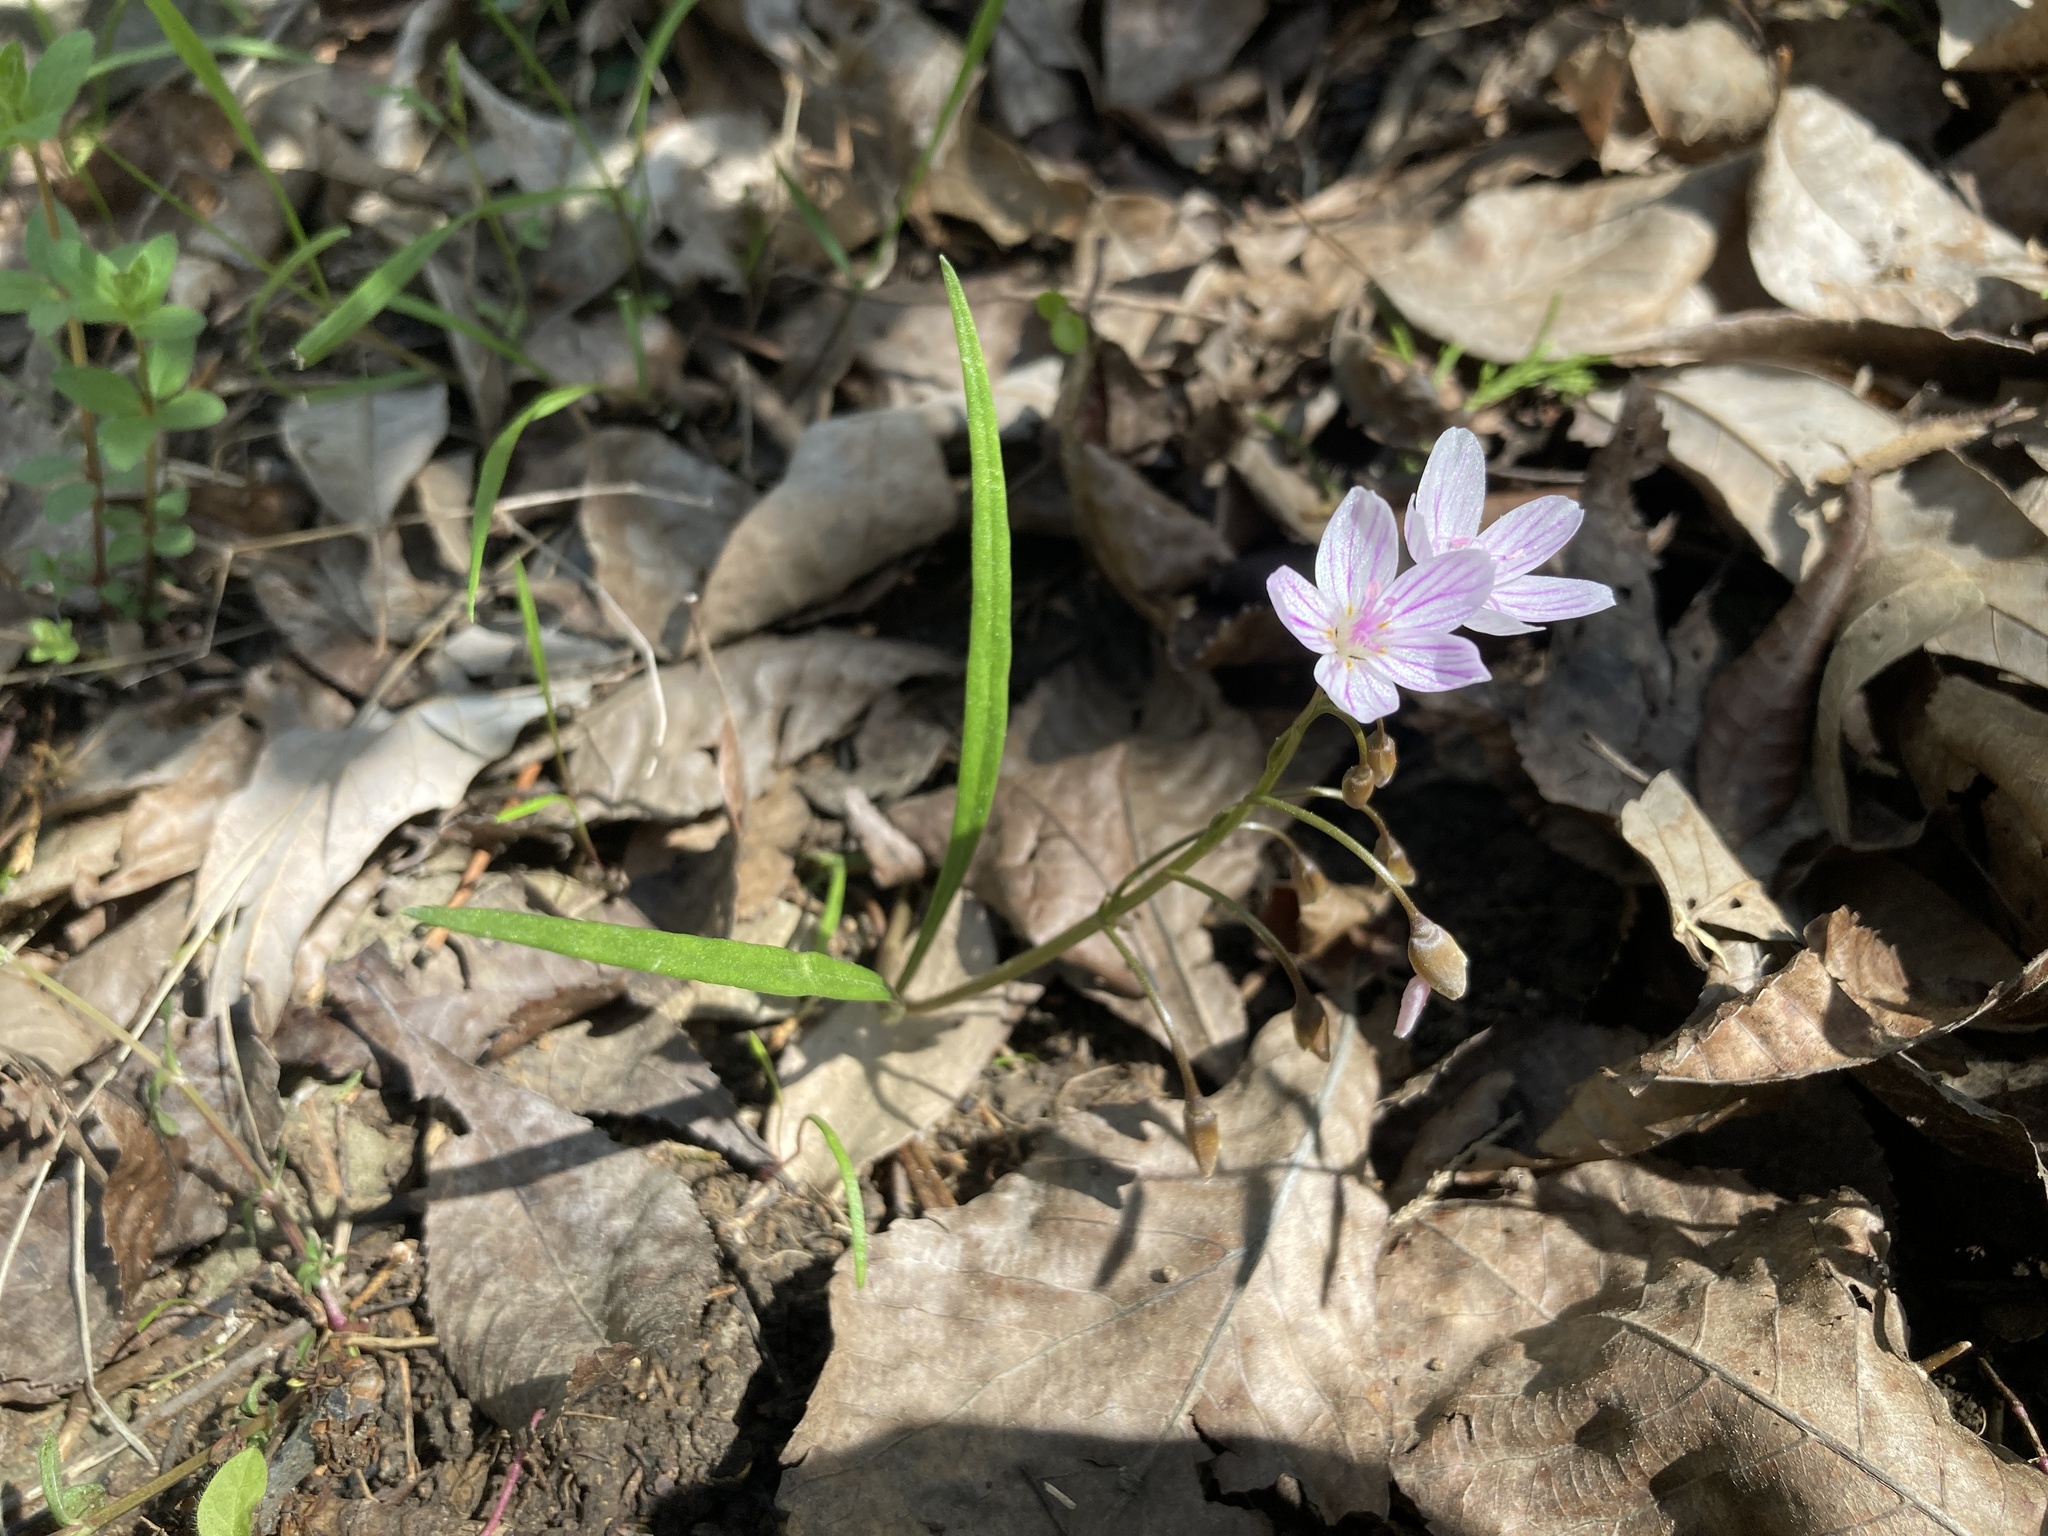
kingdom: Plantae
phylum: Tracheophyta
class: Magnoliopsida
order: Caryophyllales
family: Montiaceae
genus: Claytonia
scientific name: Claytonia virginica
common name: Virginia springbeauty
